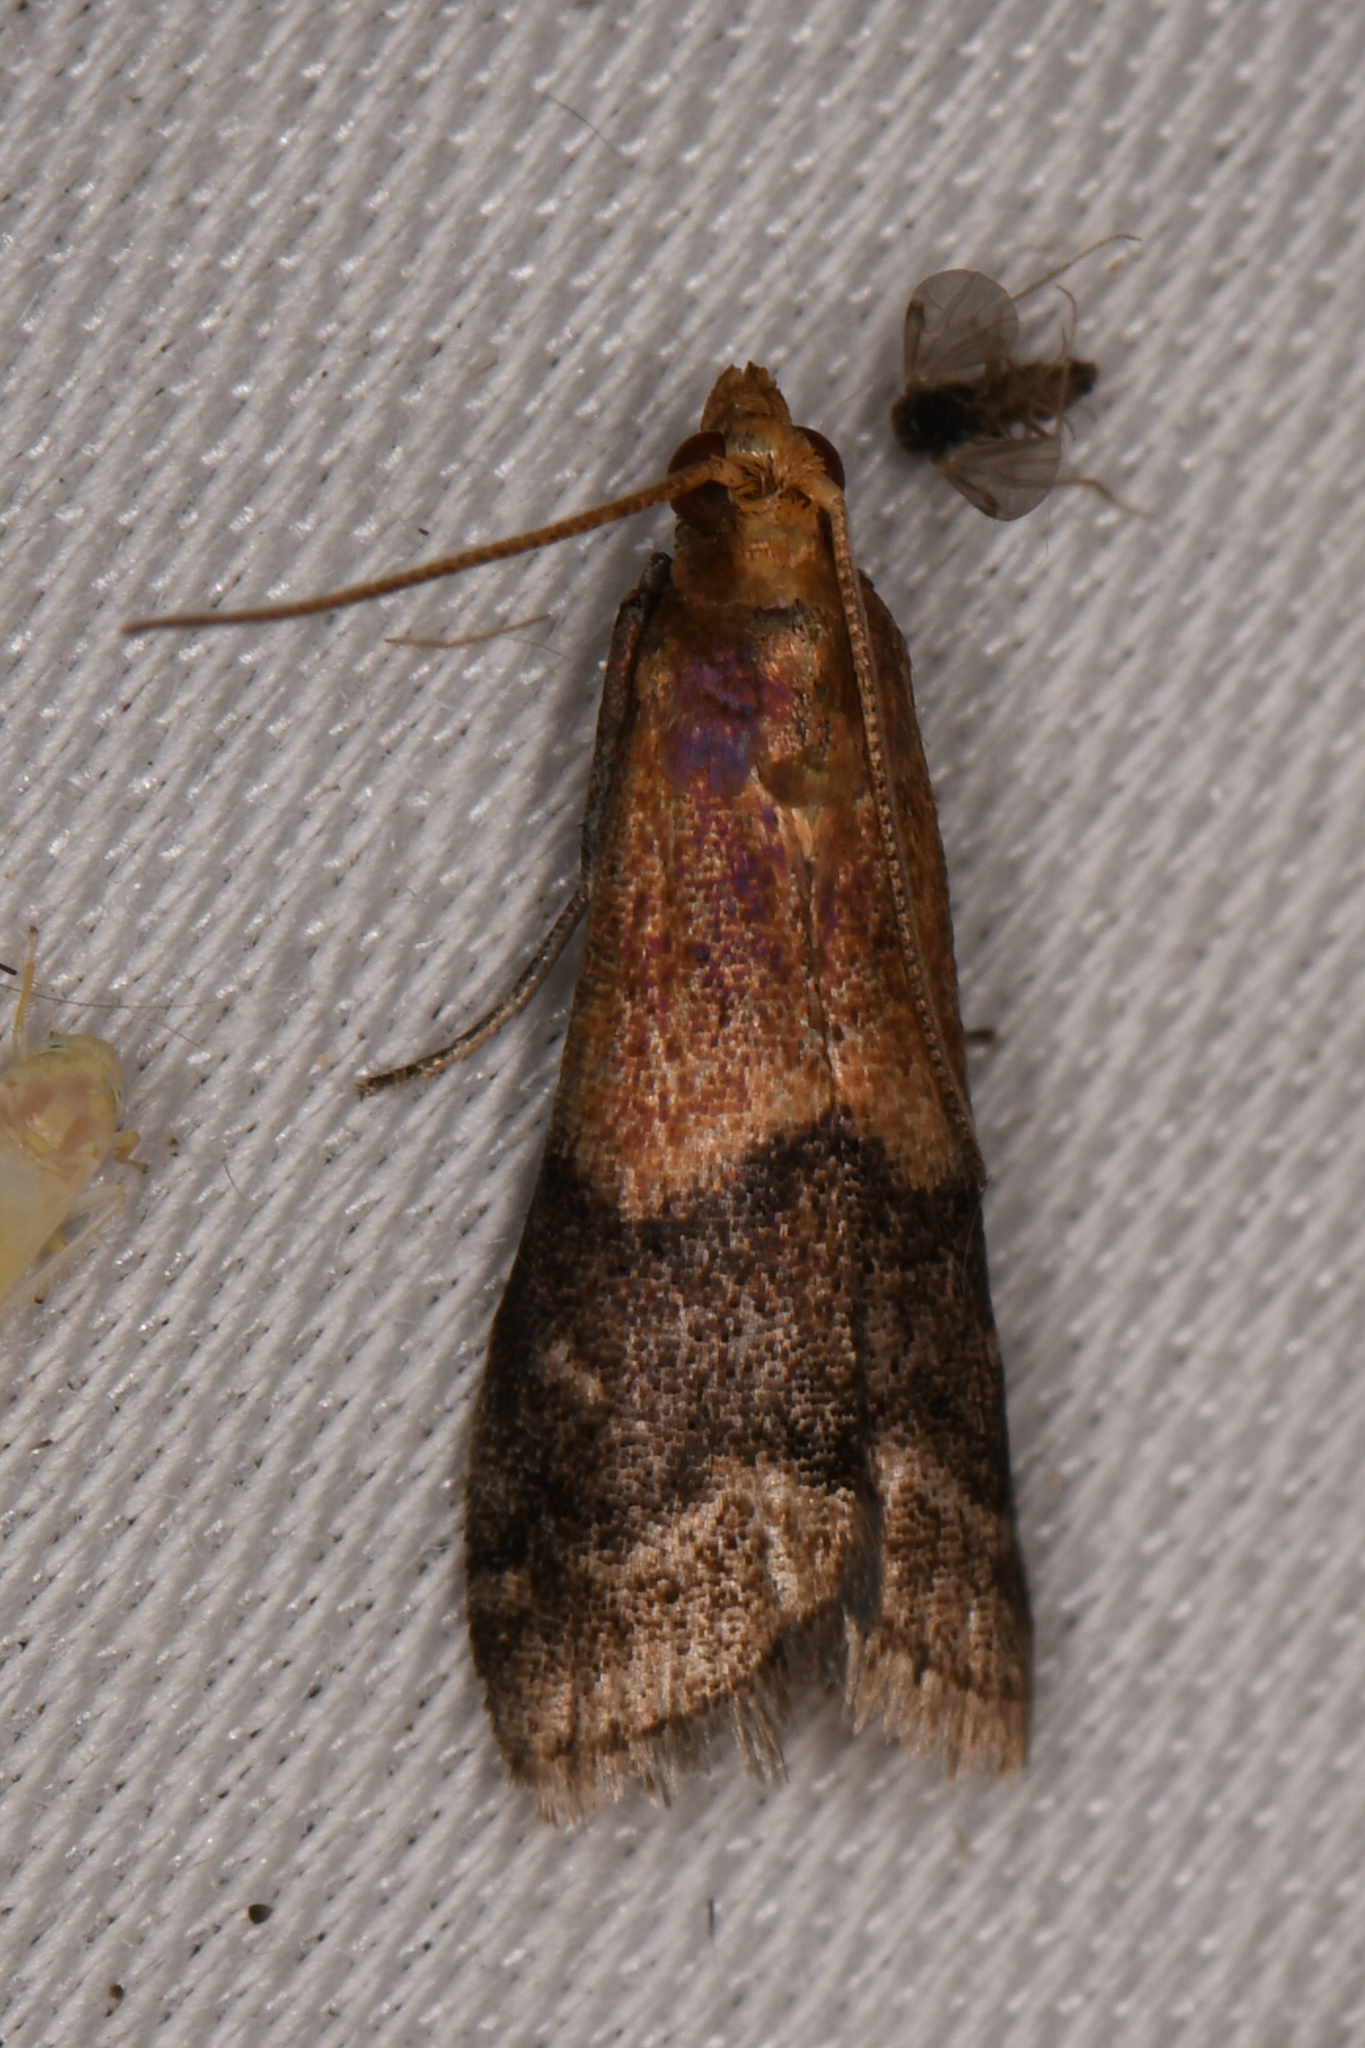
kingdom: Animalia
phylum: Arthropoda
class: Insecta
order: Lepidoptera
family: Pyralidae
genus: Eulogia
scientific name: Eulogia ochrifrontella
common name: Broad-banded eulogia moth
